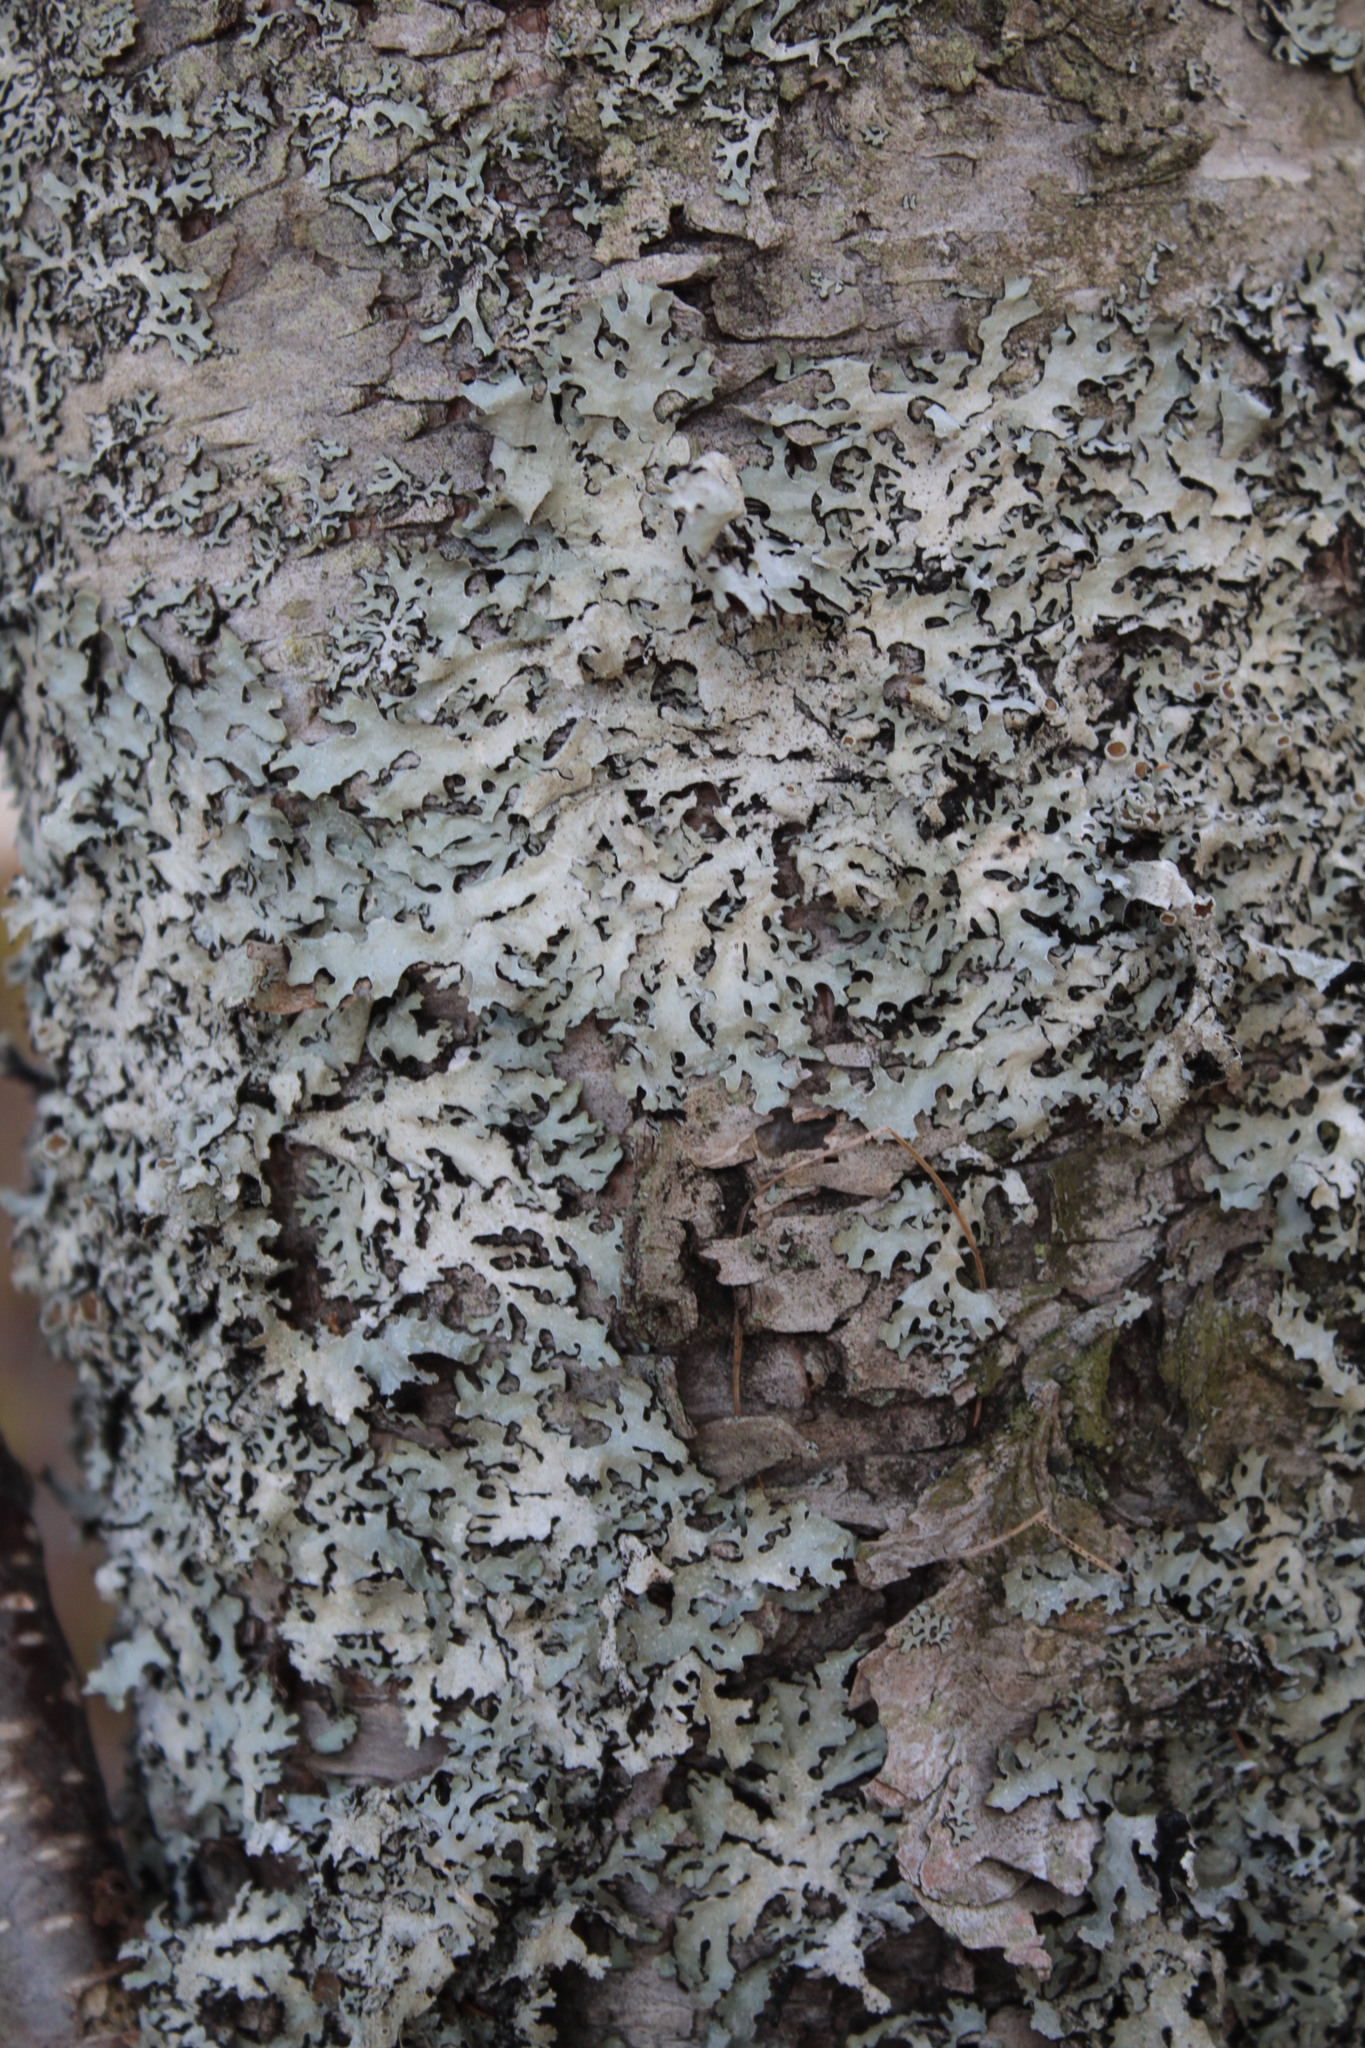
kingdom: Fungi
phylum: Ascomycota
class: Lecanoromycetes
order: Lecanorales
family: Parmeliaceae
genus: Parmelia
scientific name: Parmelia squarrosa
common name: Bottle brush shield lichen
